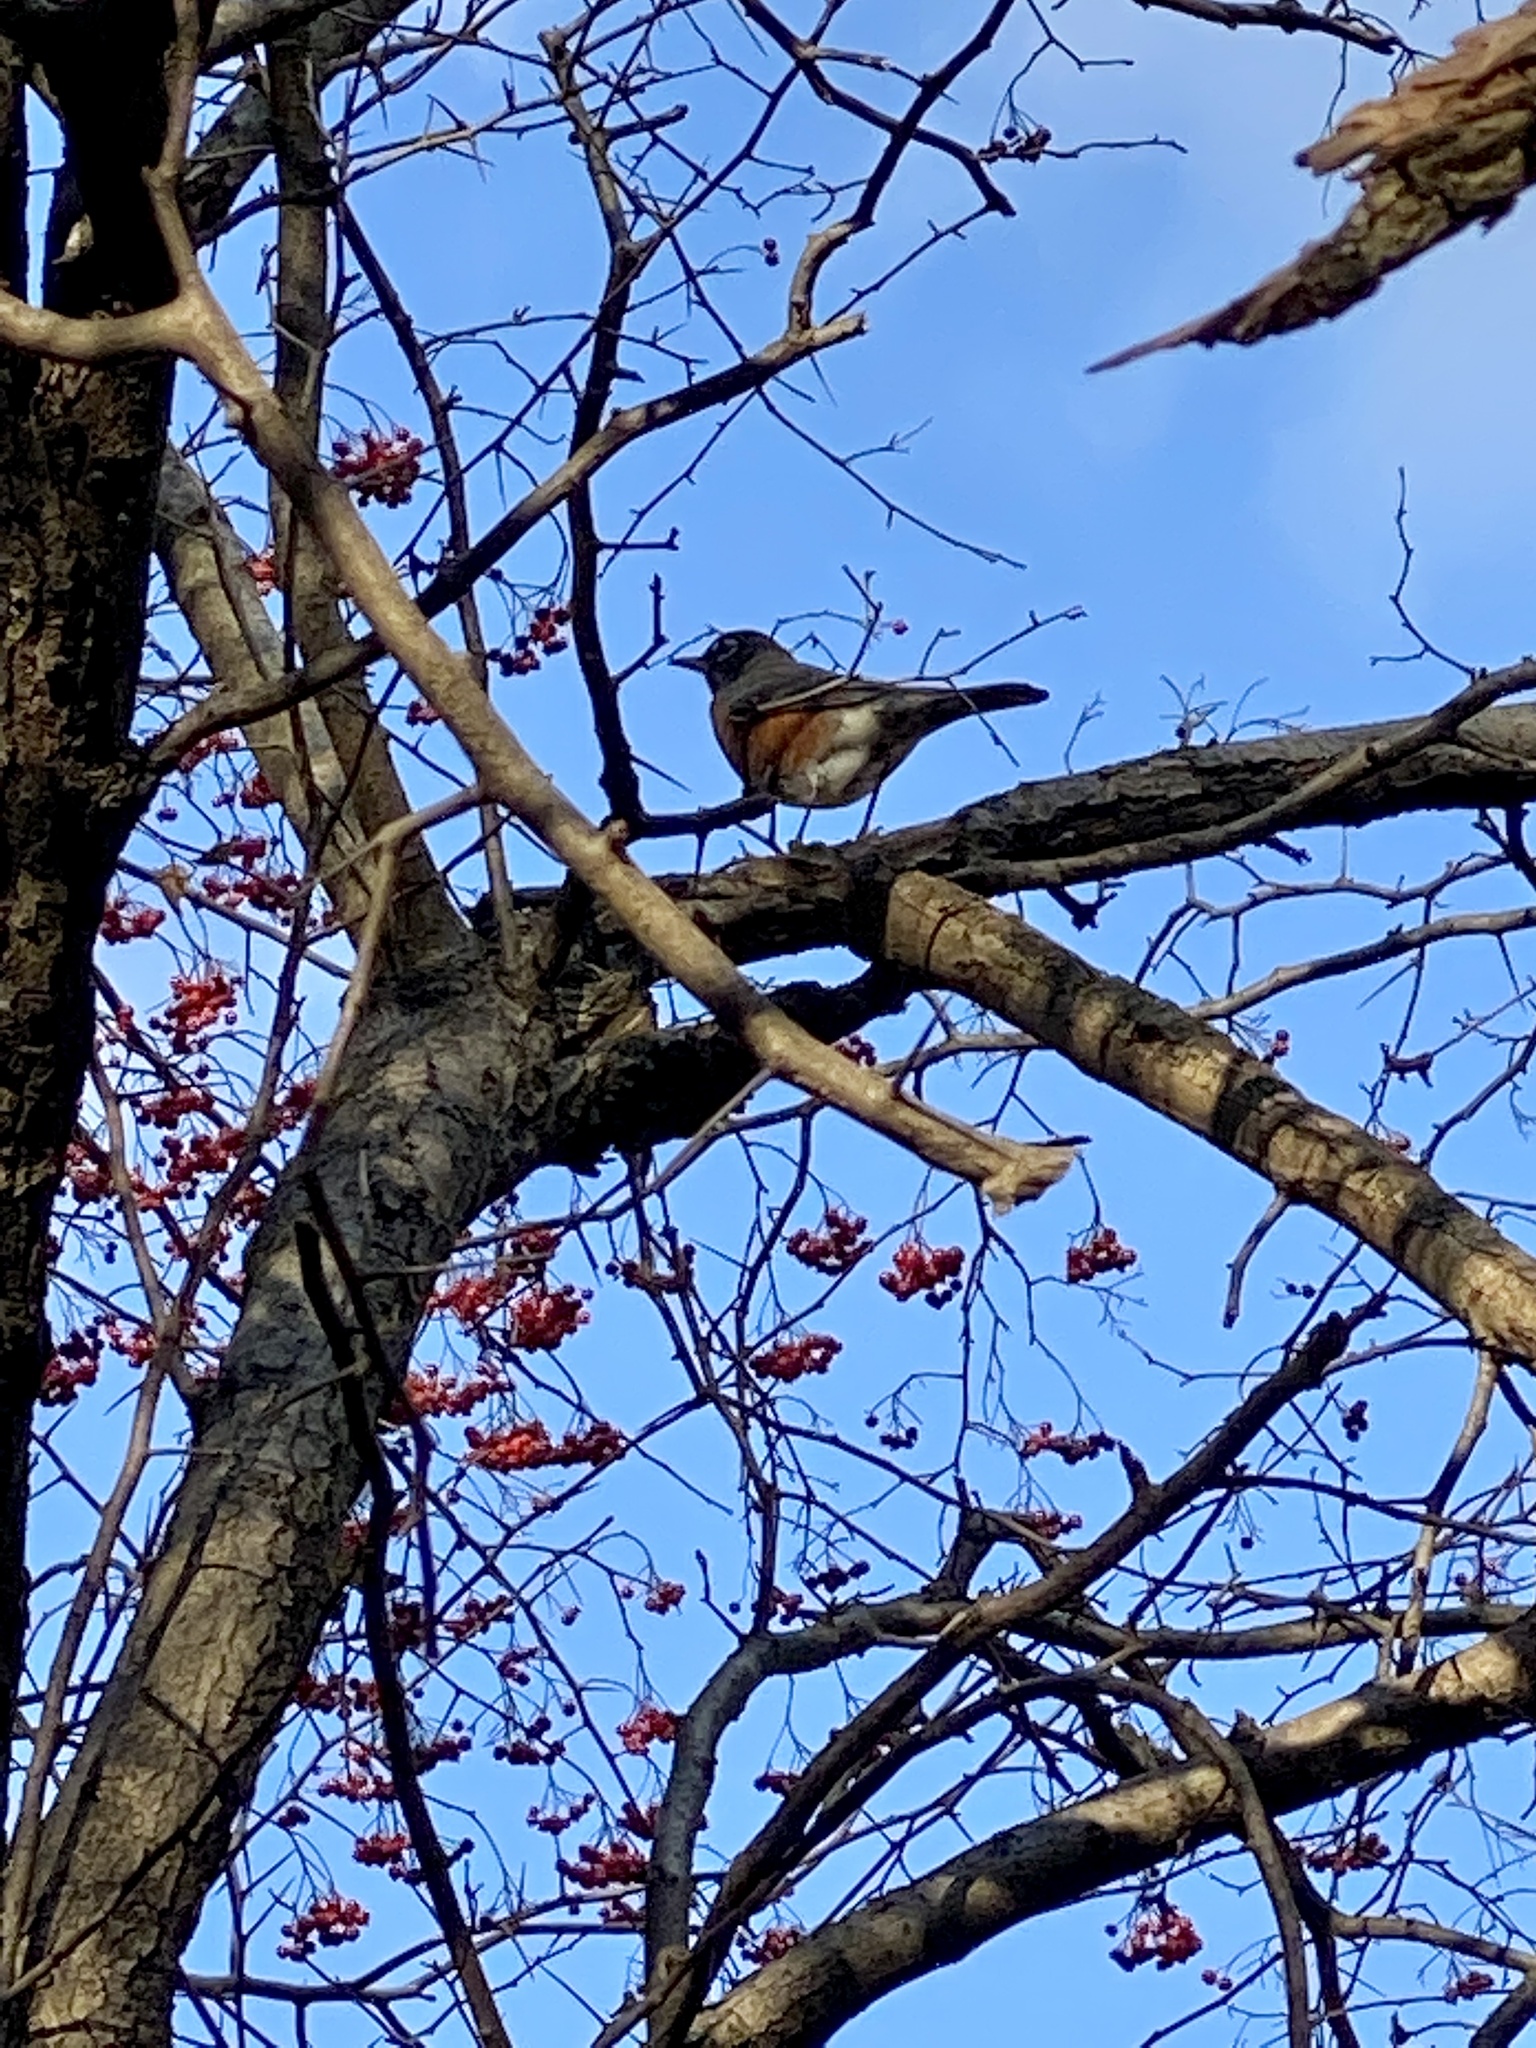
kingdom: Animalia
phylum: Chordata
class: Aves
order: Passeriformes
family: Turdidae
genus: Turdus
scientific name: Turdus migratorius
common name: American robin
